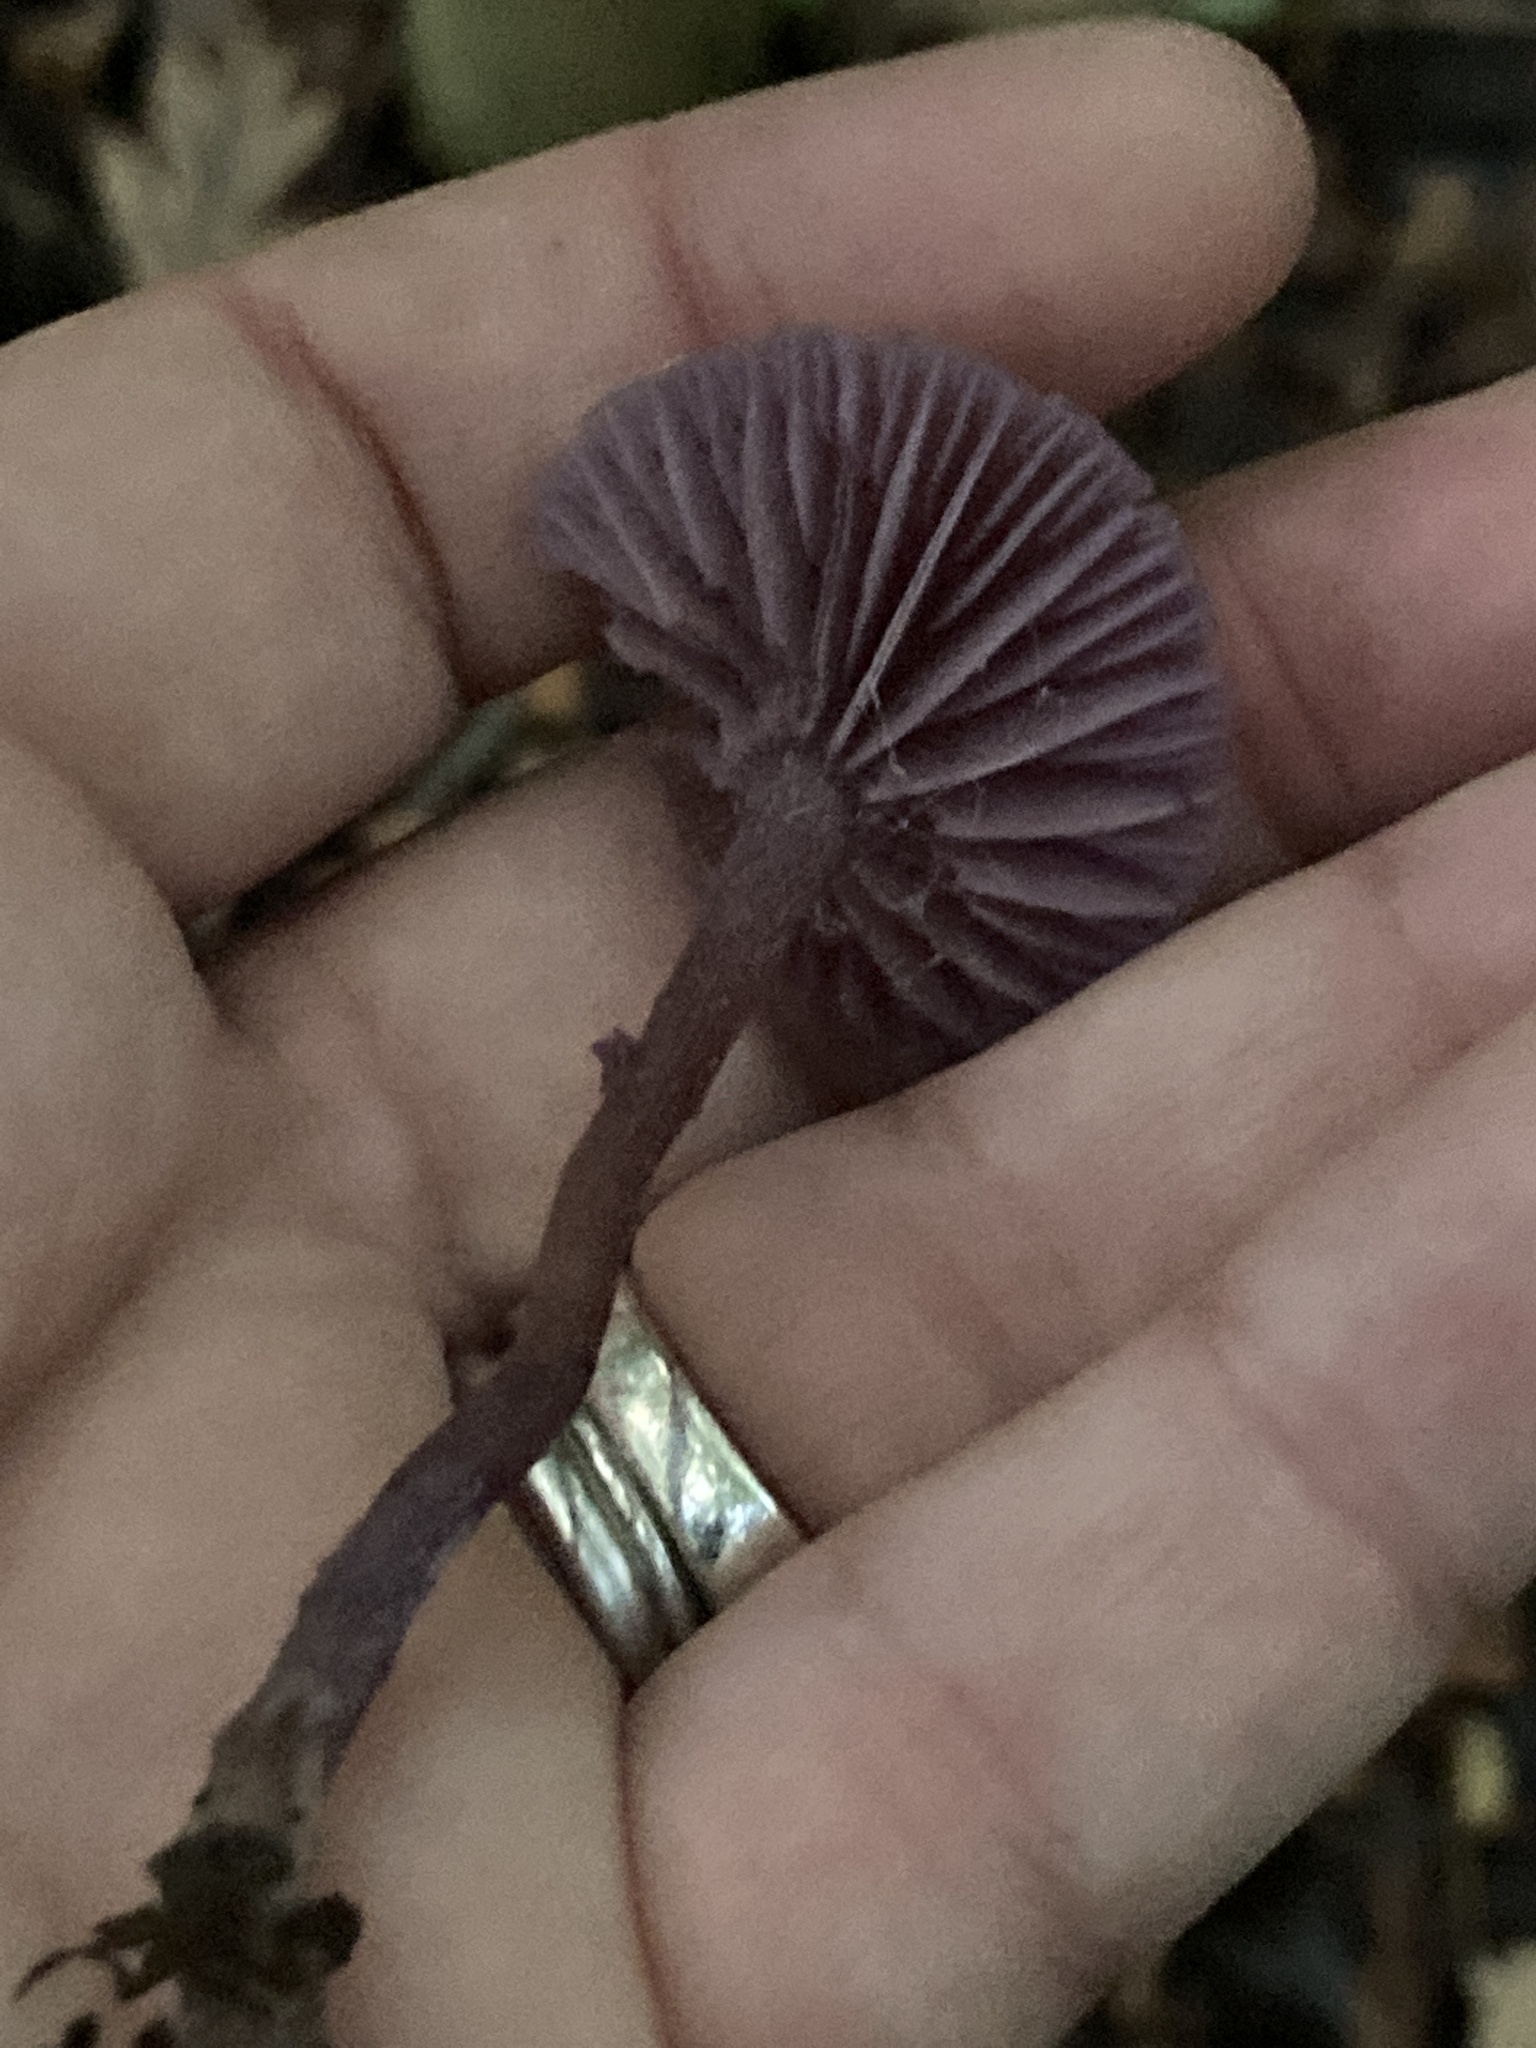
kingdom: Fungi
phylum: Basidiomycota
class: Agaricomycetes
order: Agaricales
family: Hydnangiaceae
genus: Laccaria
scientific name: Laccaria amethystina
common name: Amethyst deceiver
